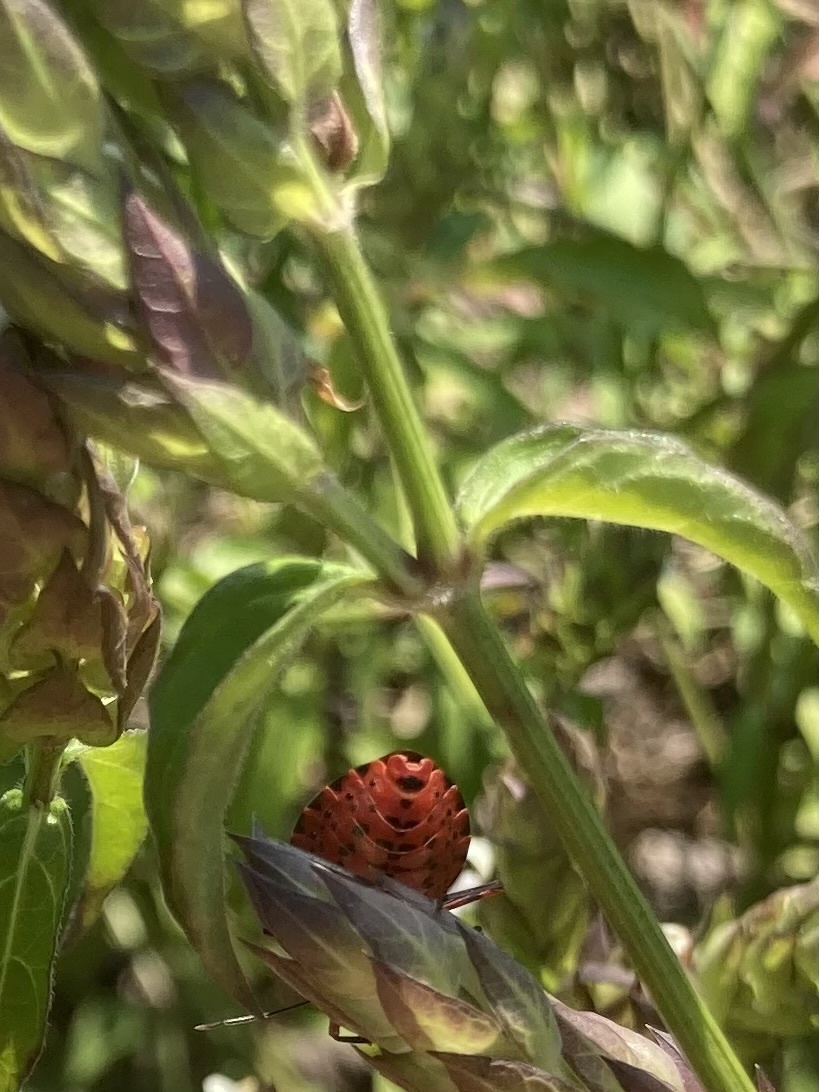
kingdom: Animalia
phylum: Arthropoda
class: Insecta
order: Hemiptera
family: Pentatomidae
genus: Caura
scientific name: Caura rufiventris
